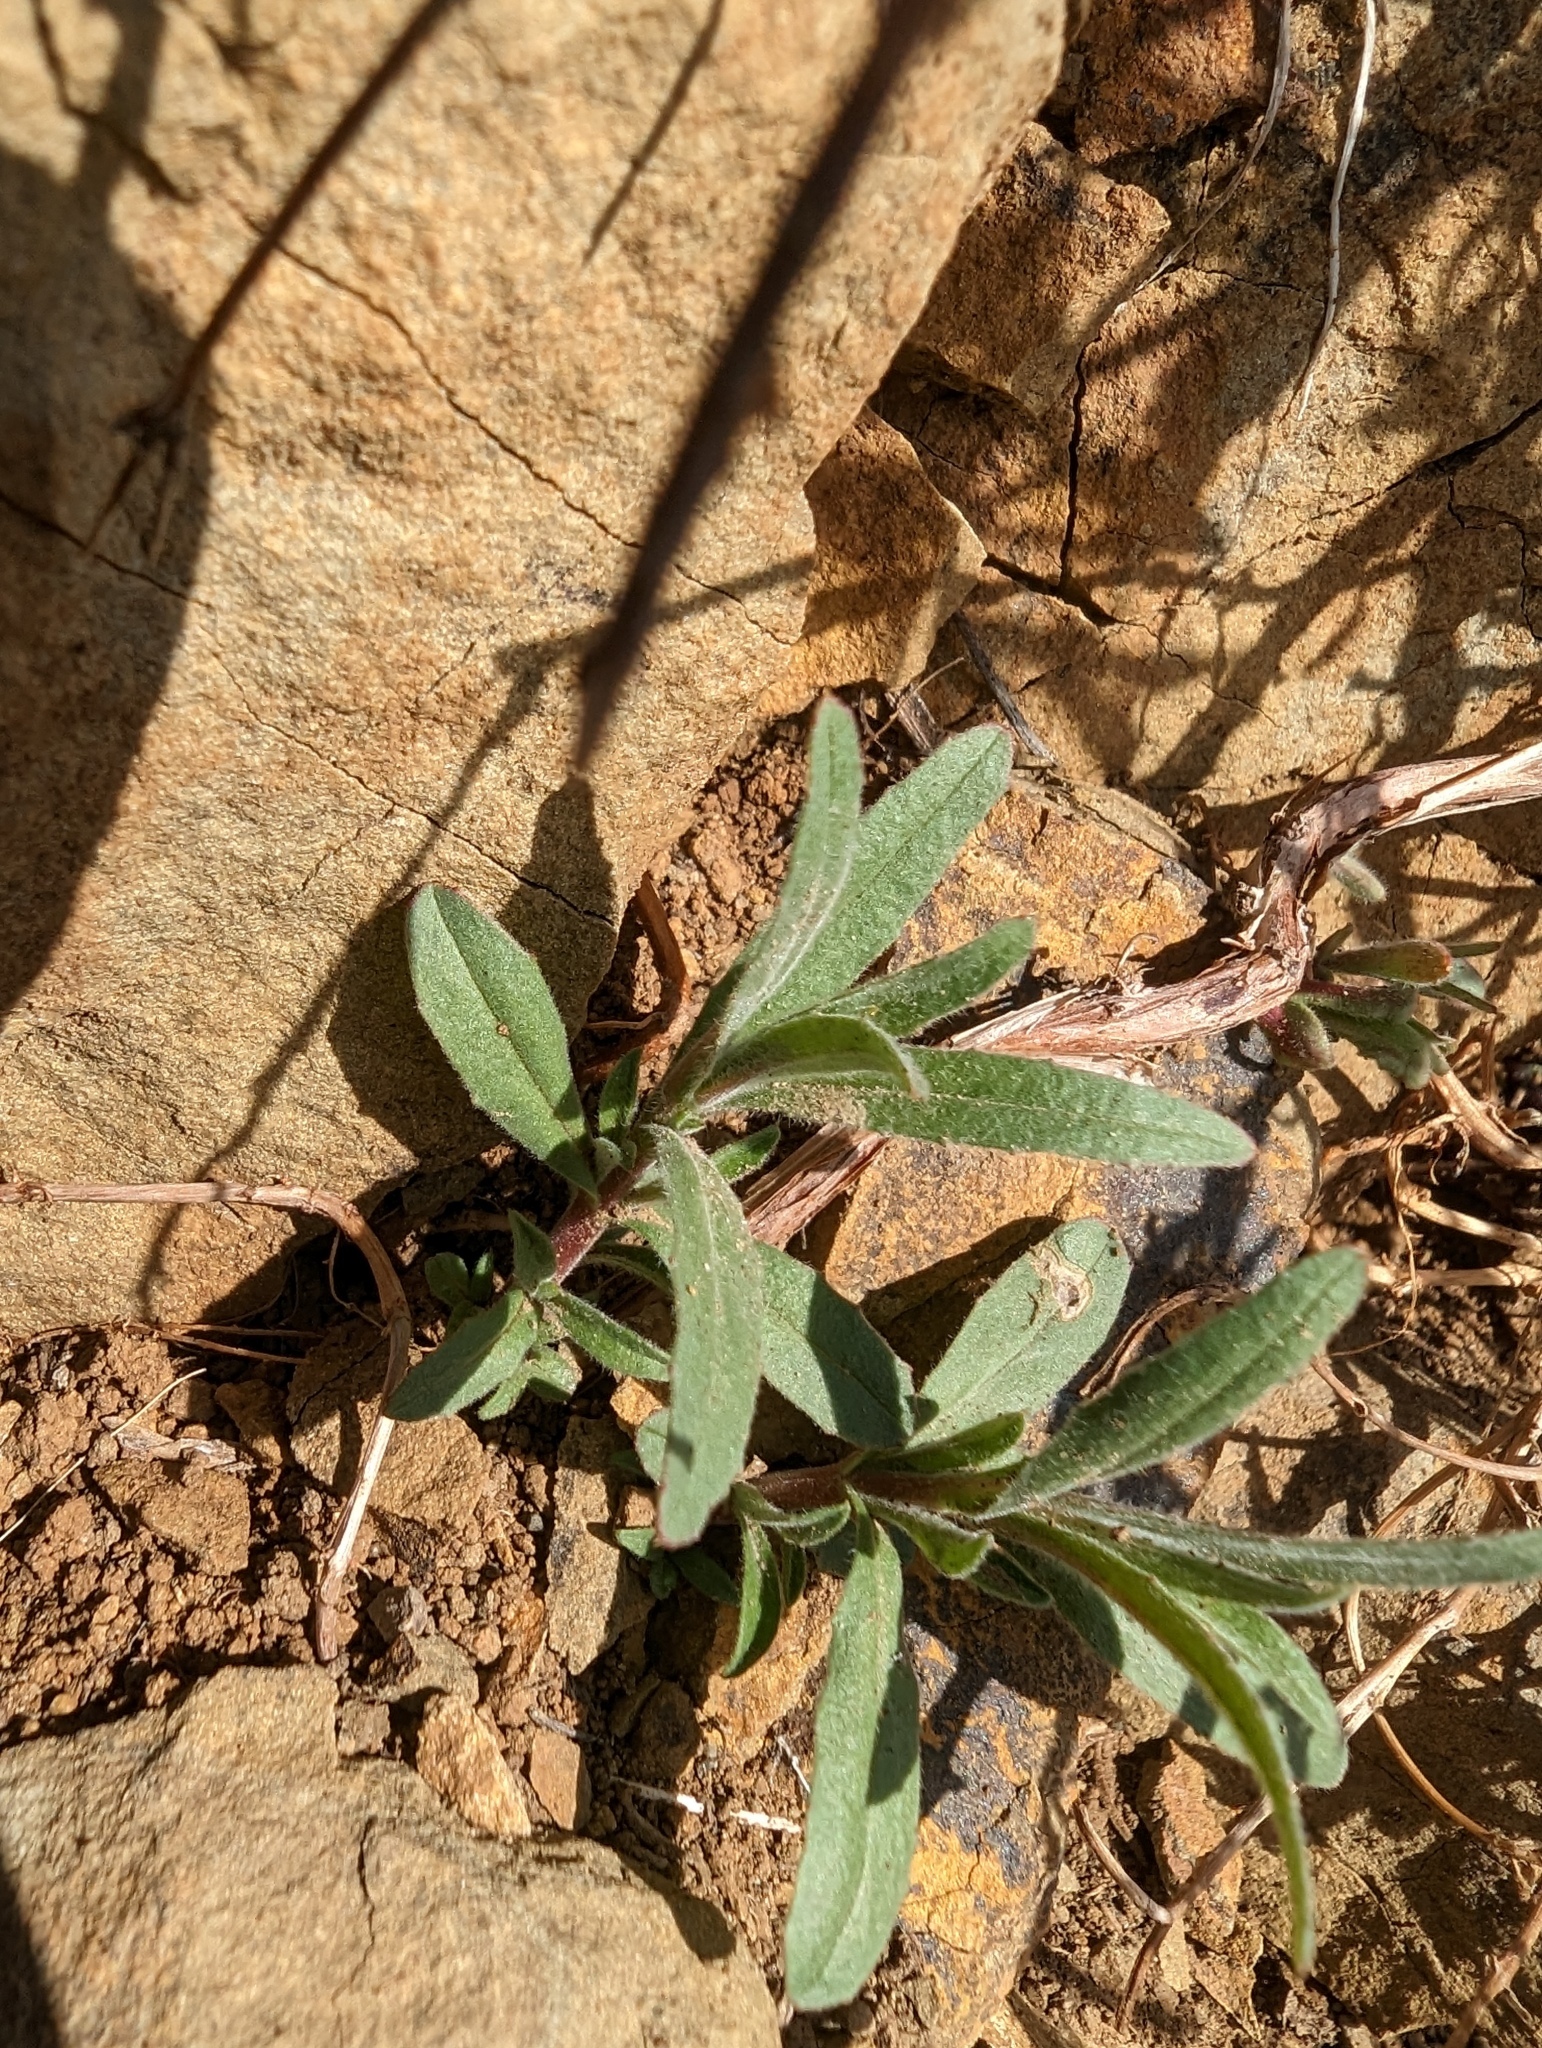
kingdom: Plantae
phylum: Tracheophyta
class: Magnoliopsida
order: Myrtales
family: Onagraceae
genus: Epilobium
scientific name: Epilobium canum
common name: California-fuchsia
